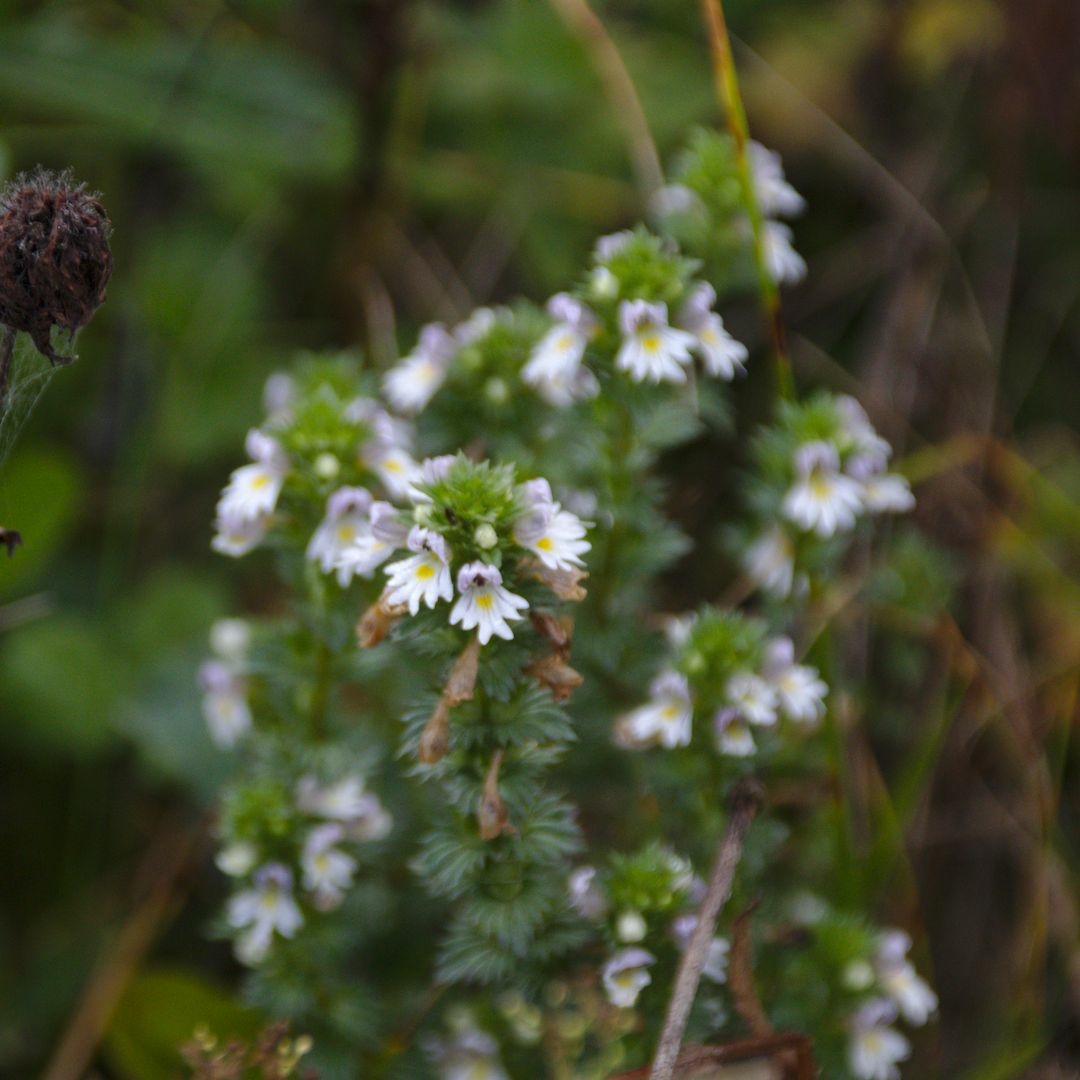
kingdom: Plantae
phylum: Tracheophyta
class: Magnoliopsida
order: Lamiales
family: Orobanchaceae
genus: Euphrasia
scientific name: Euphrasia
